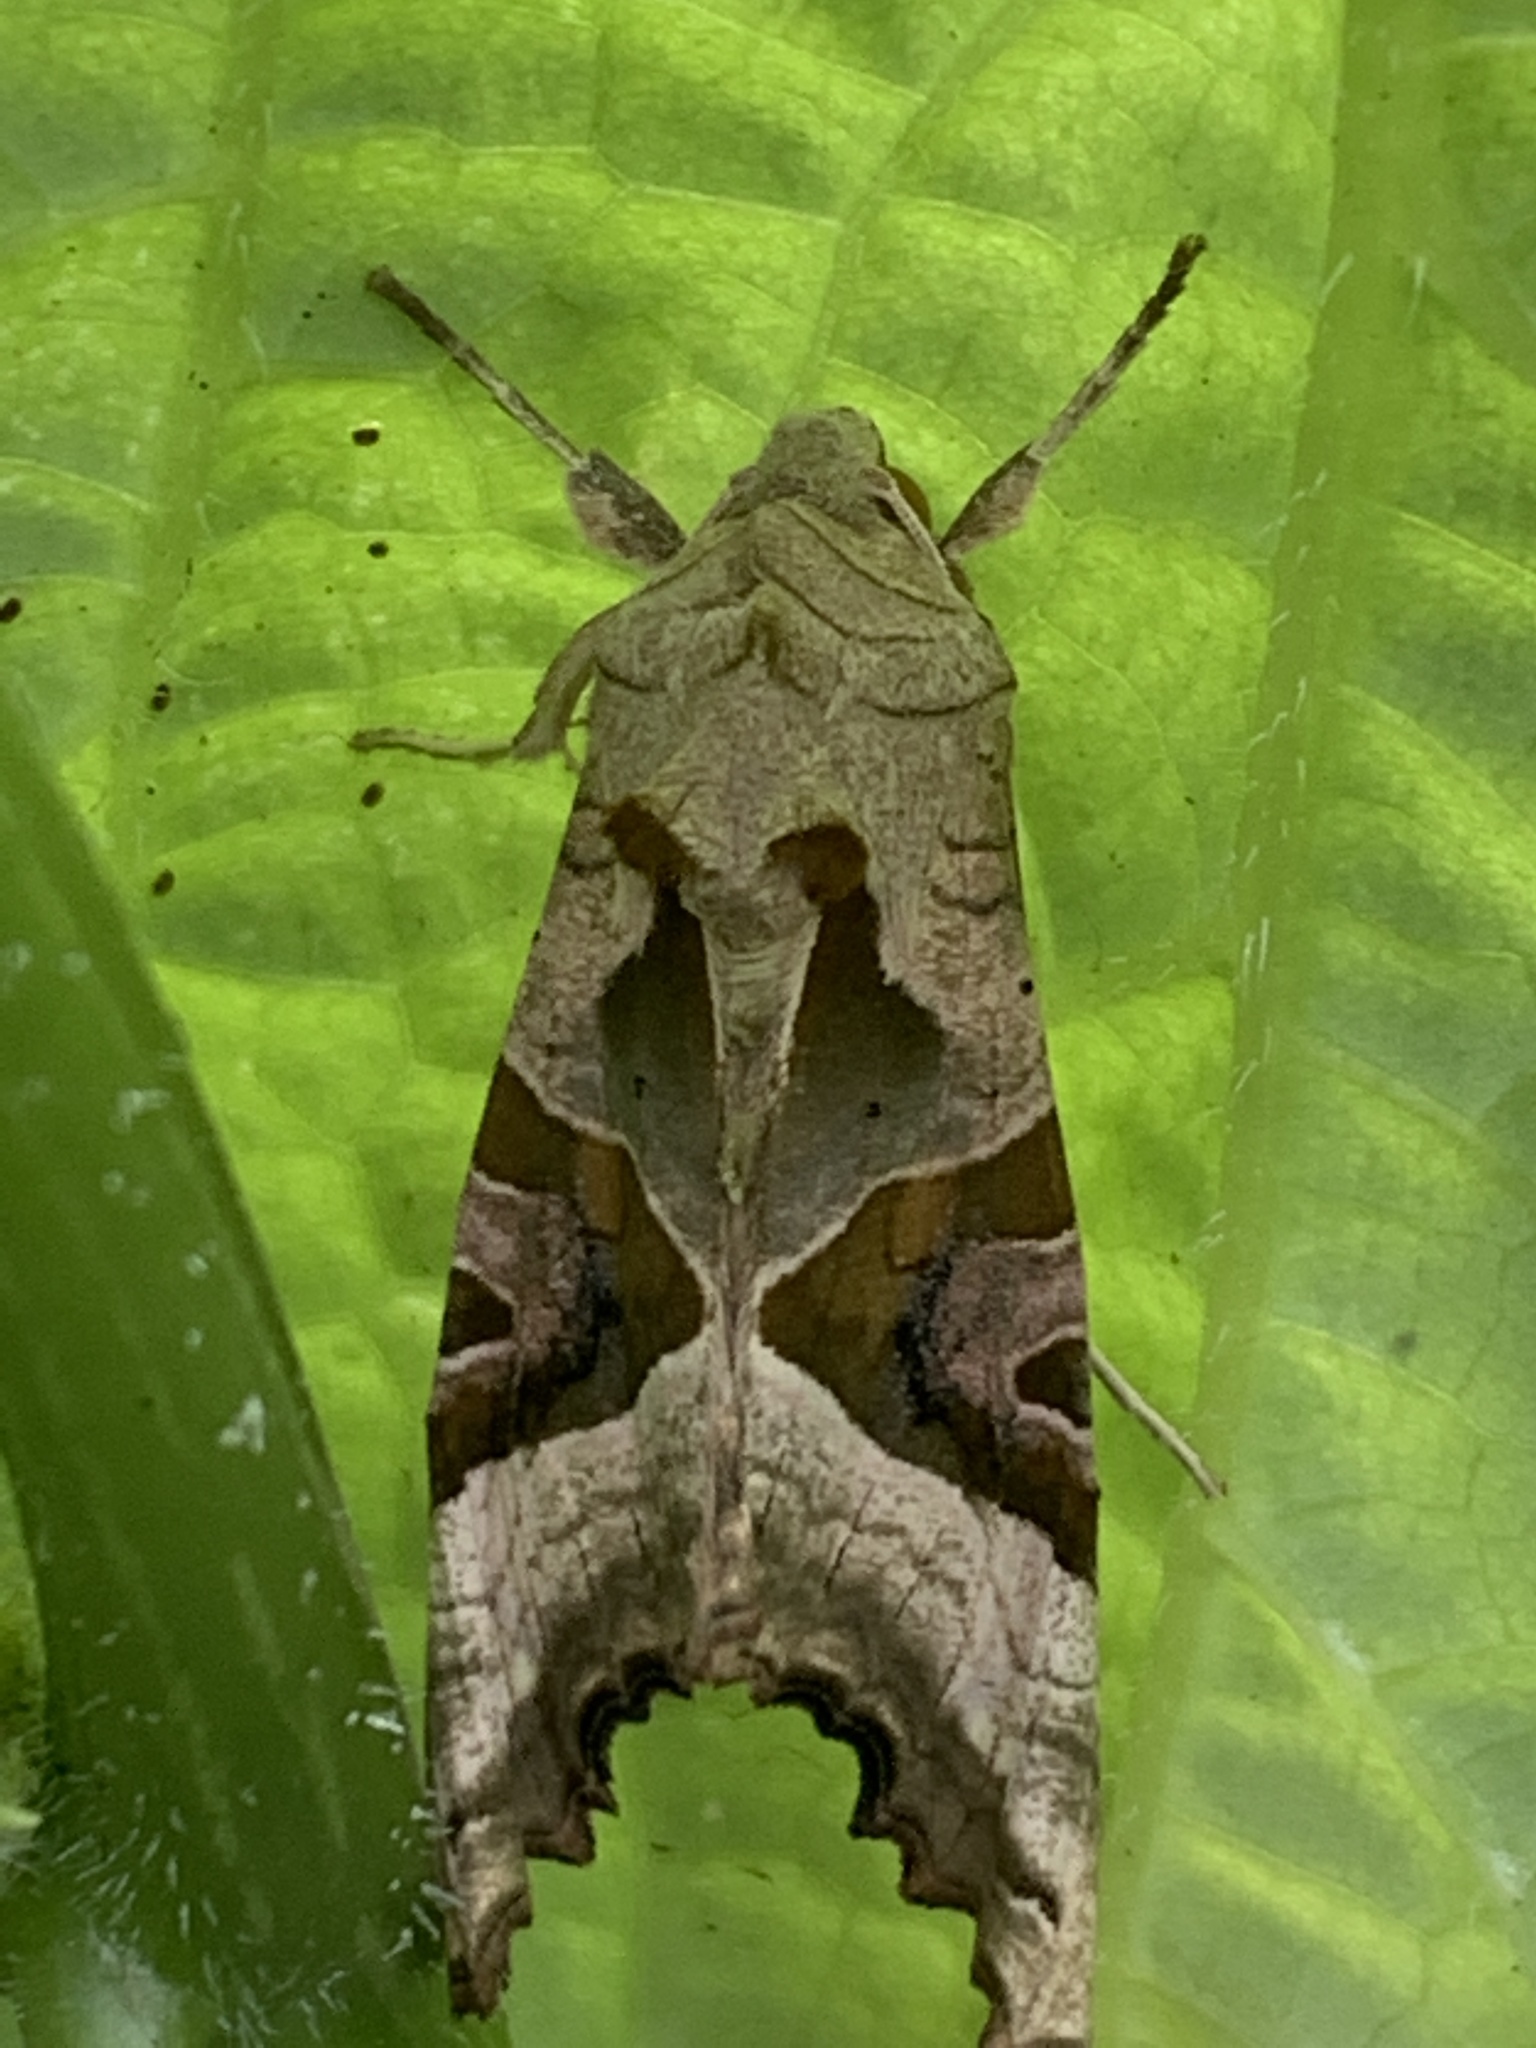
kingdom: Animalia
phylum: Arthropoda
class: Insecta
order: Lepidoptera
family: Noctuidae
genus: Phlogophora
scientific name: Phlogophora meticulosa
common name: Angle shades
